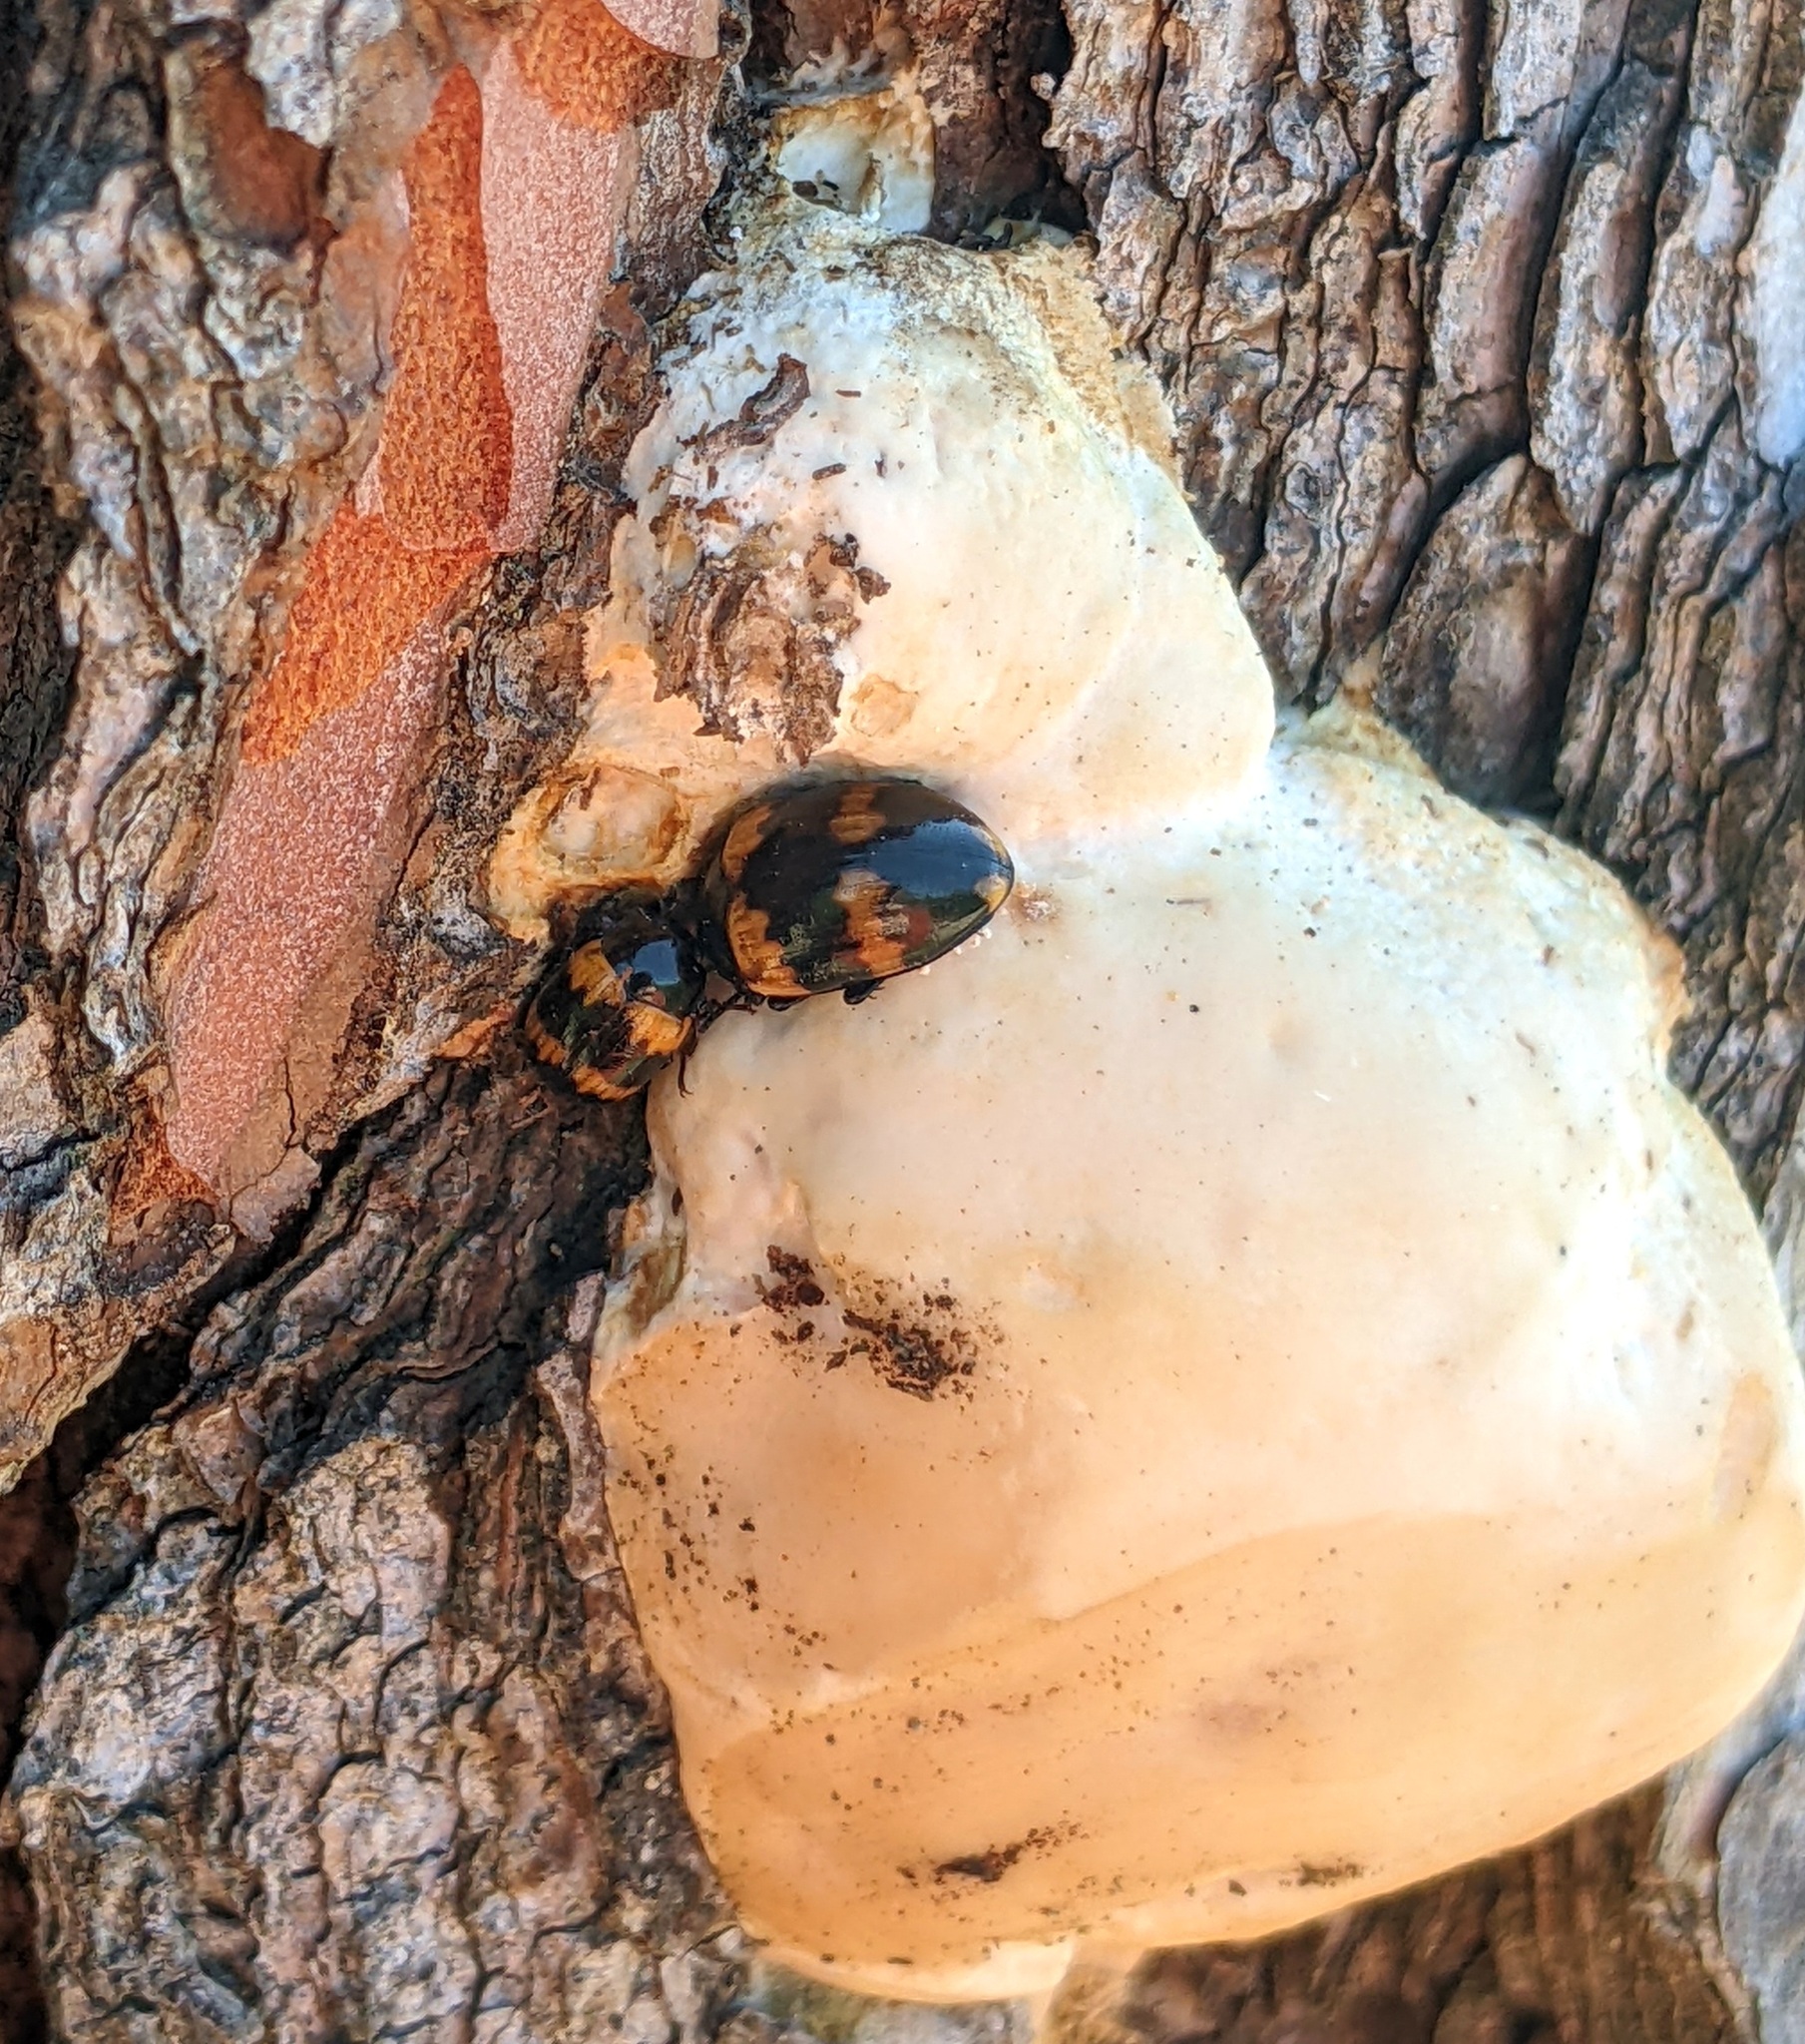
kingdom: Animalia
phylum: Arthropoda
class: Insecta
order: Coleoptera
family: Tenebrionidae
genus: Diaperis
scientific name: Diaperis boleti
